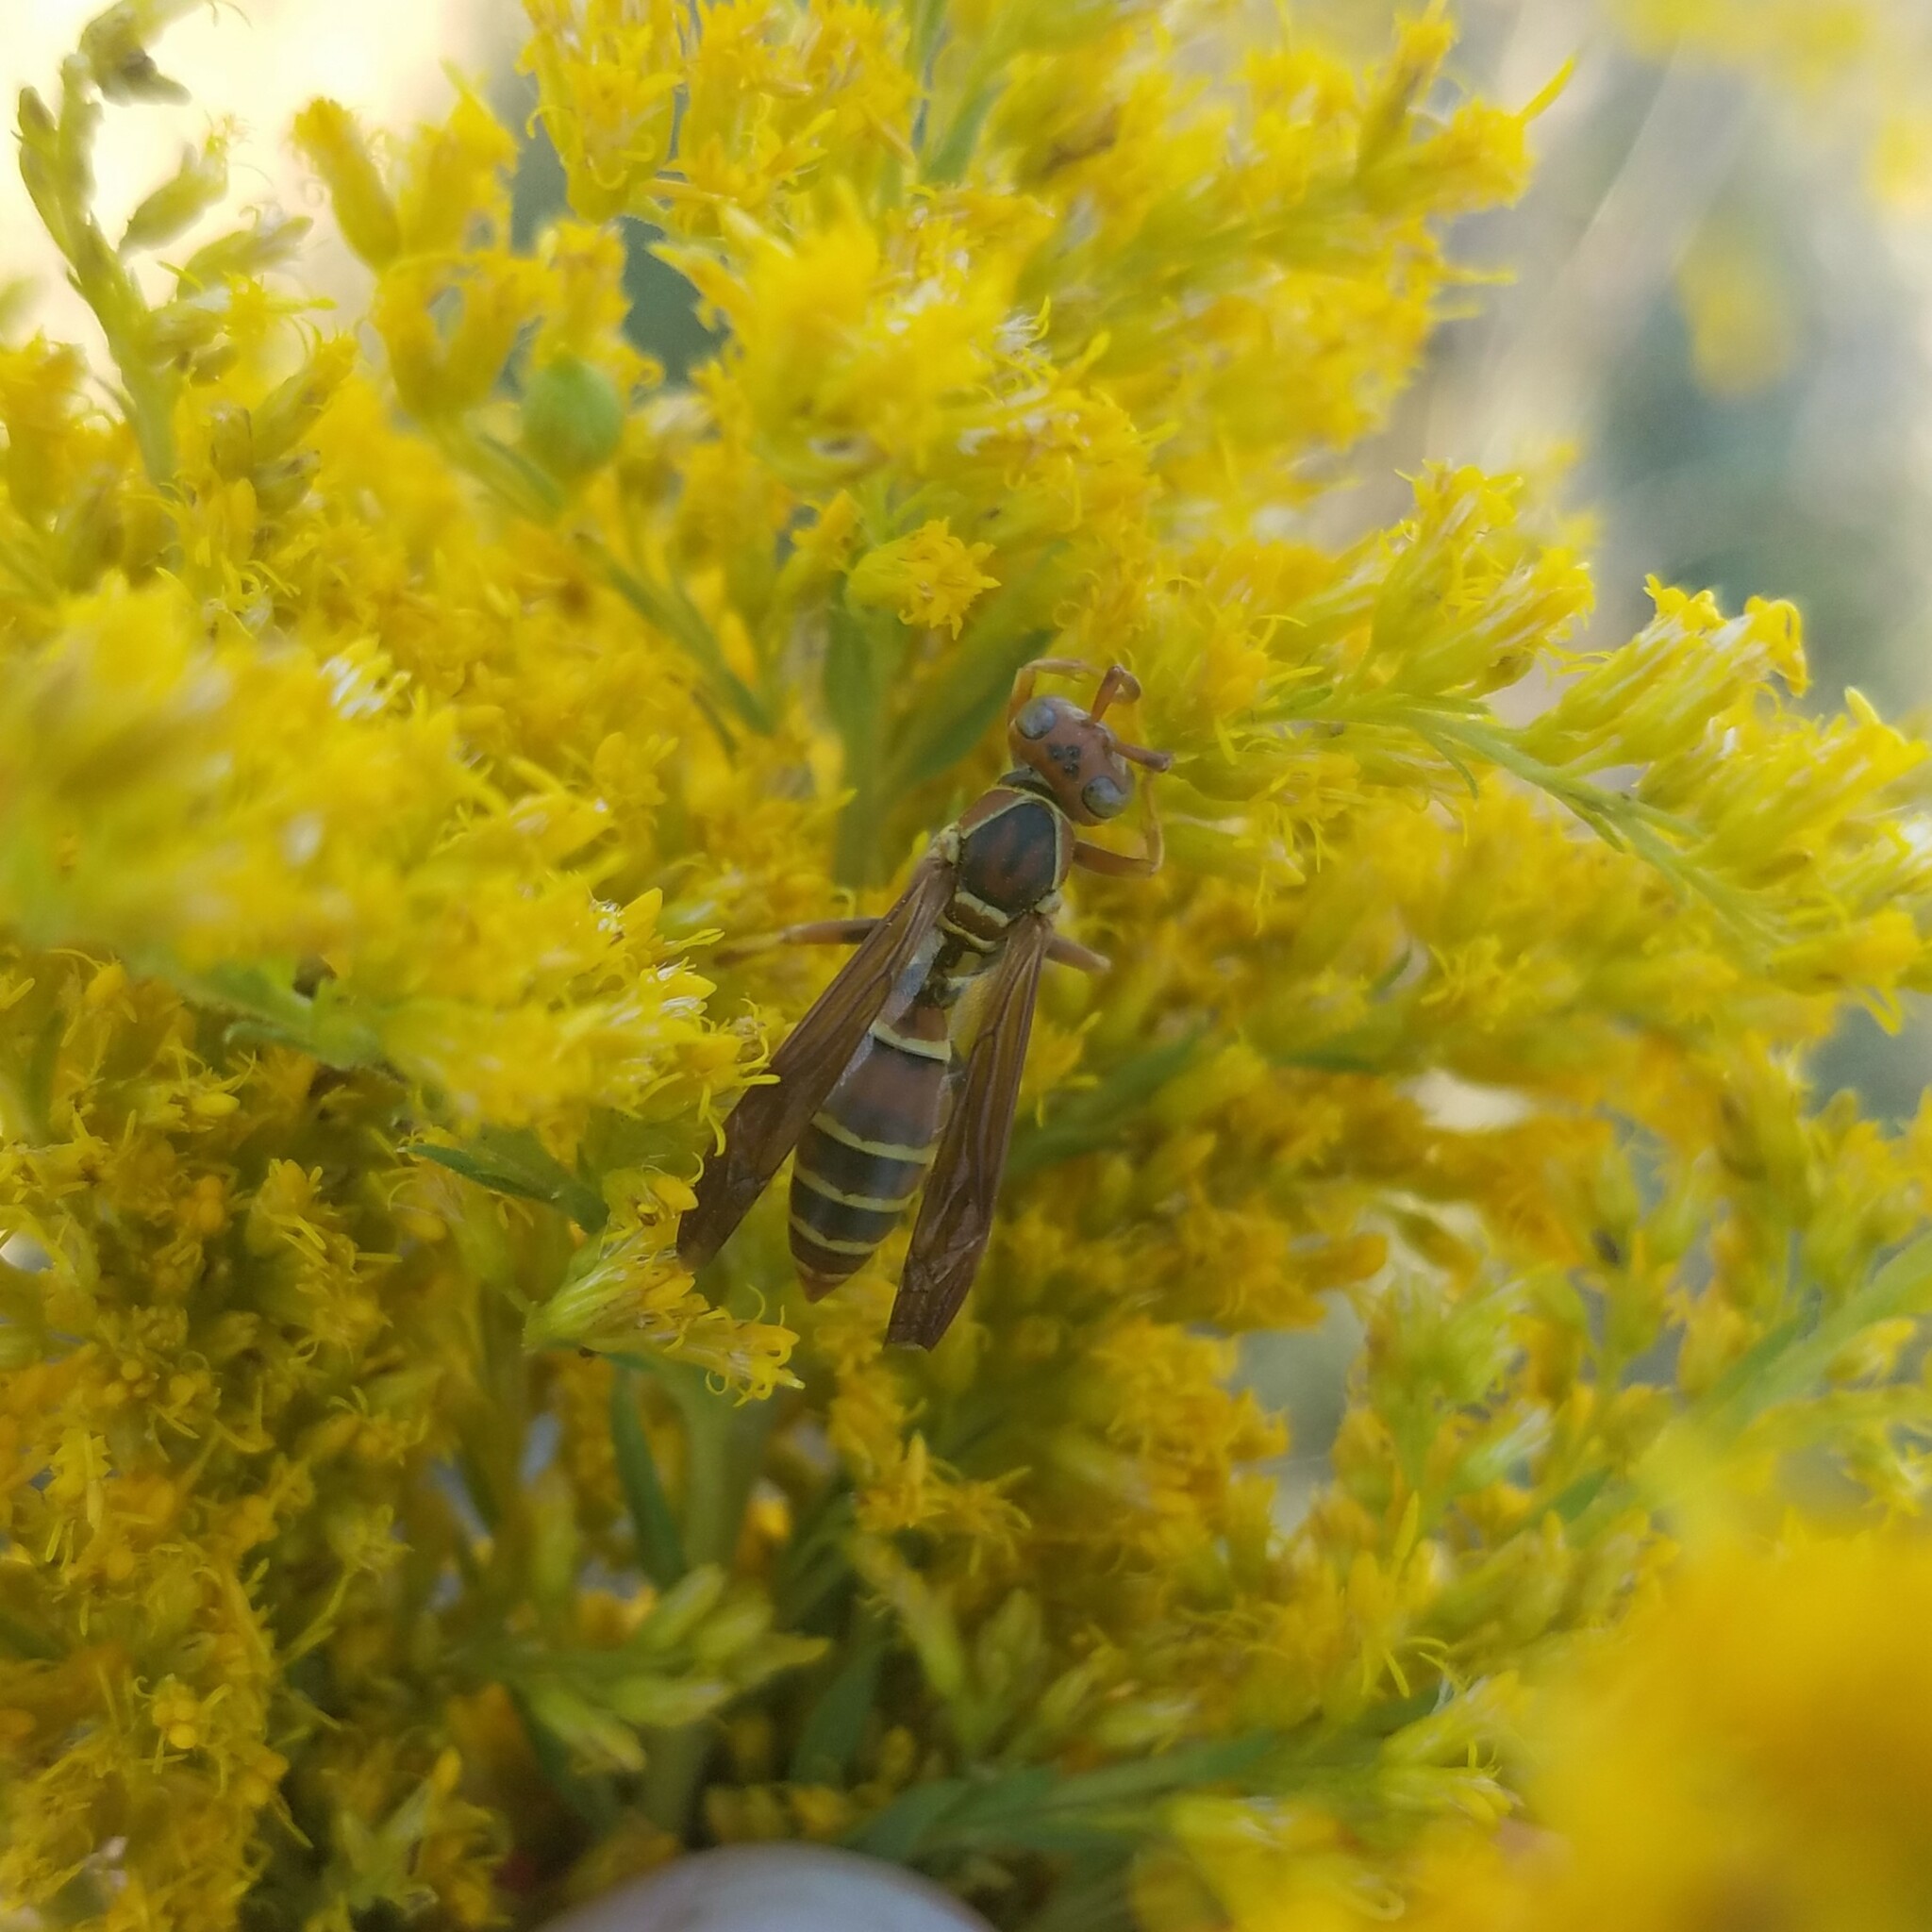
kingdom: Animalia
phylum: Arthropoda
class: Insecta
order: Hymenoptera
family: Eumenidae
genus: Polistes
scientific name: Polistes dorsalis
